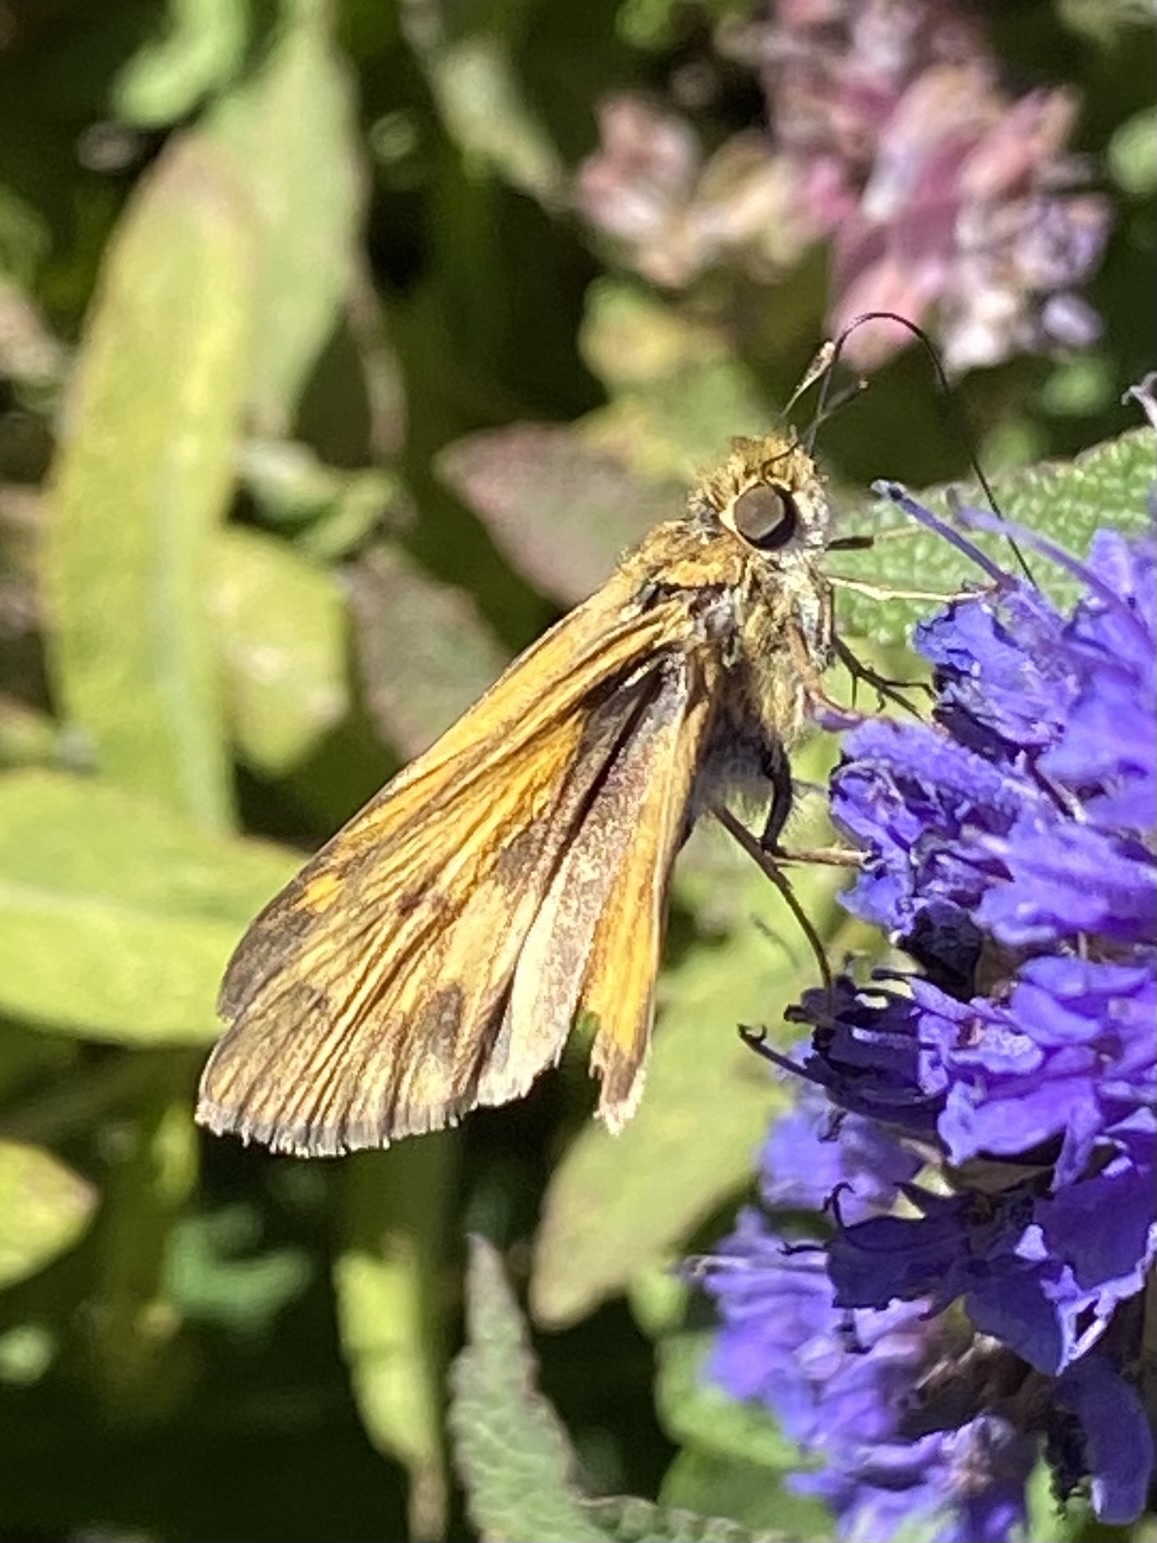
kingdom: Animalia
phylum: Arthropoda
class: Insecta
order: Lepidoptera
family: Hesperiidae
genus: Hylephila
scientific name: Hylephila phyleus
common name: Fiery skipper
